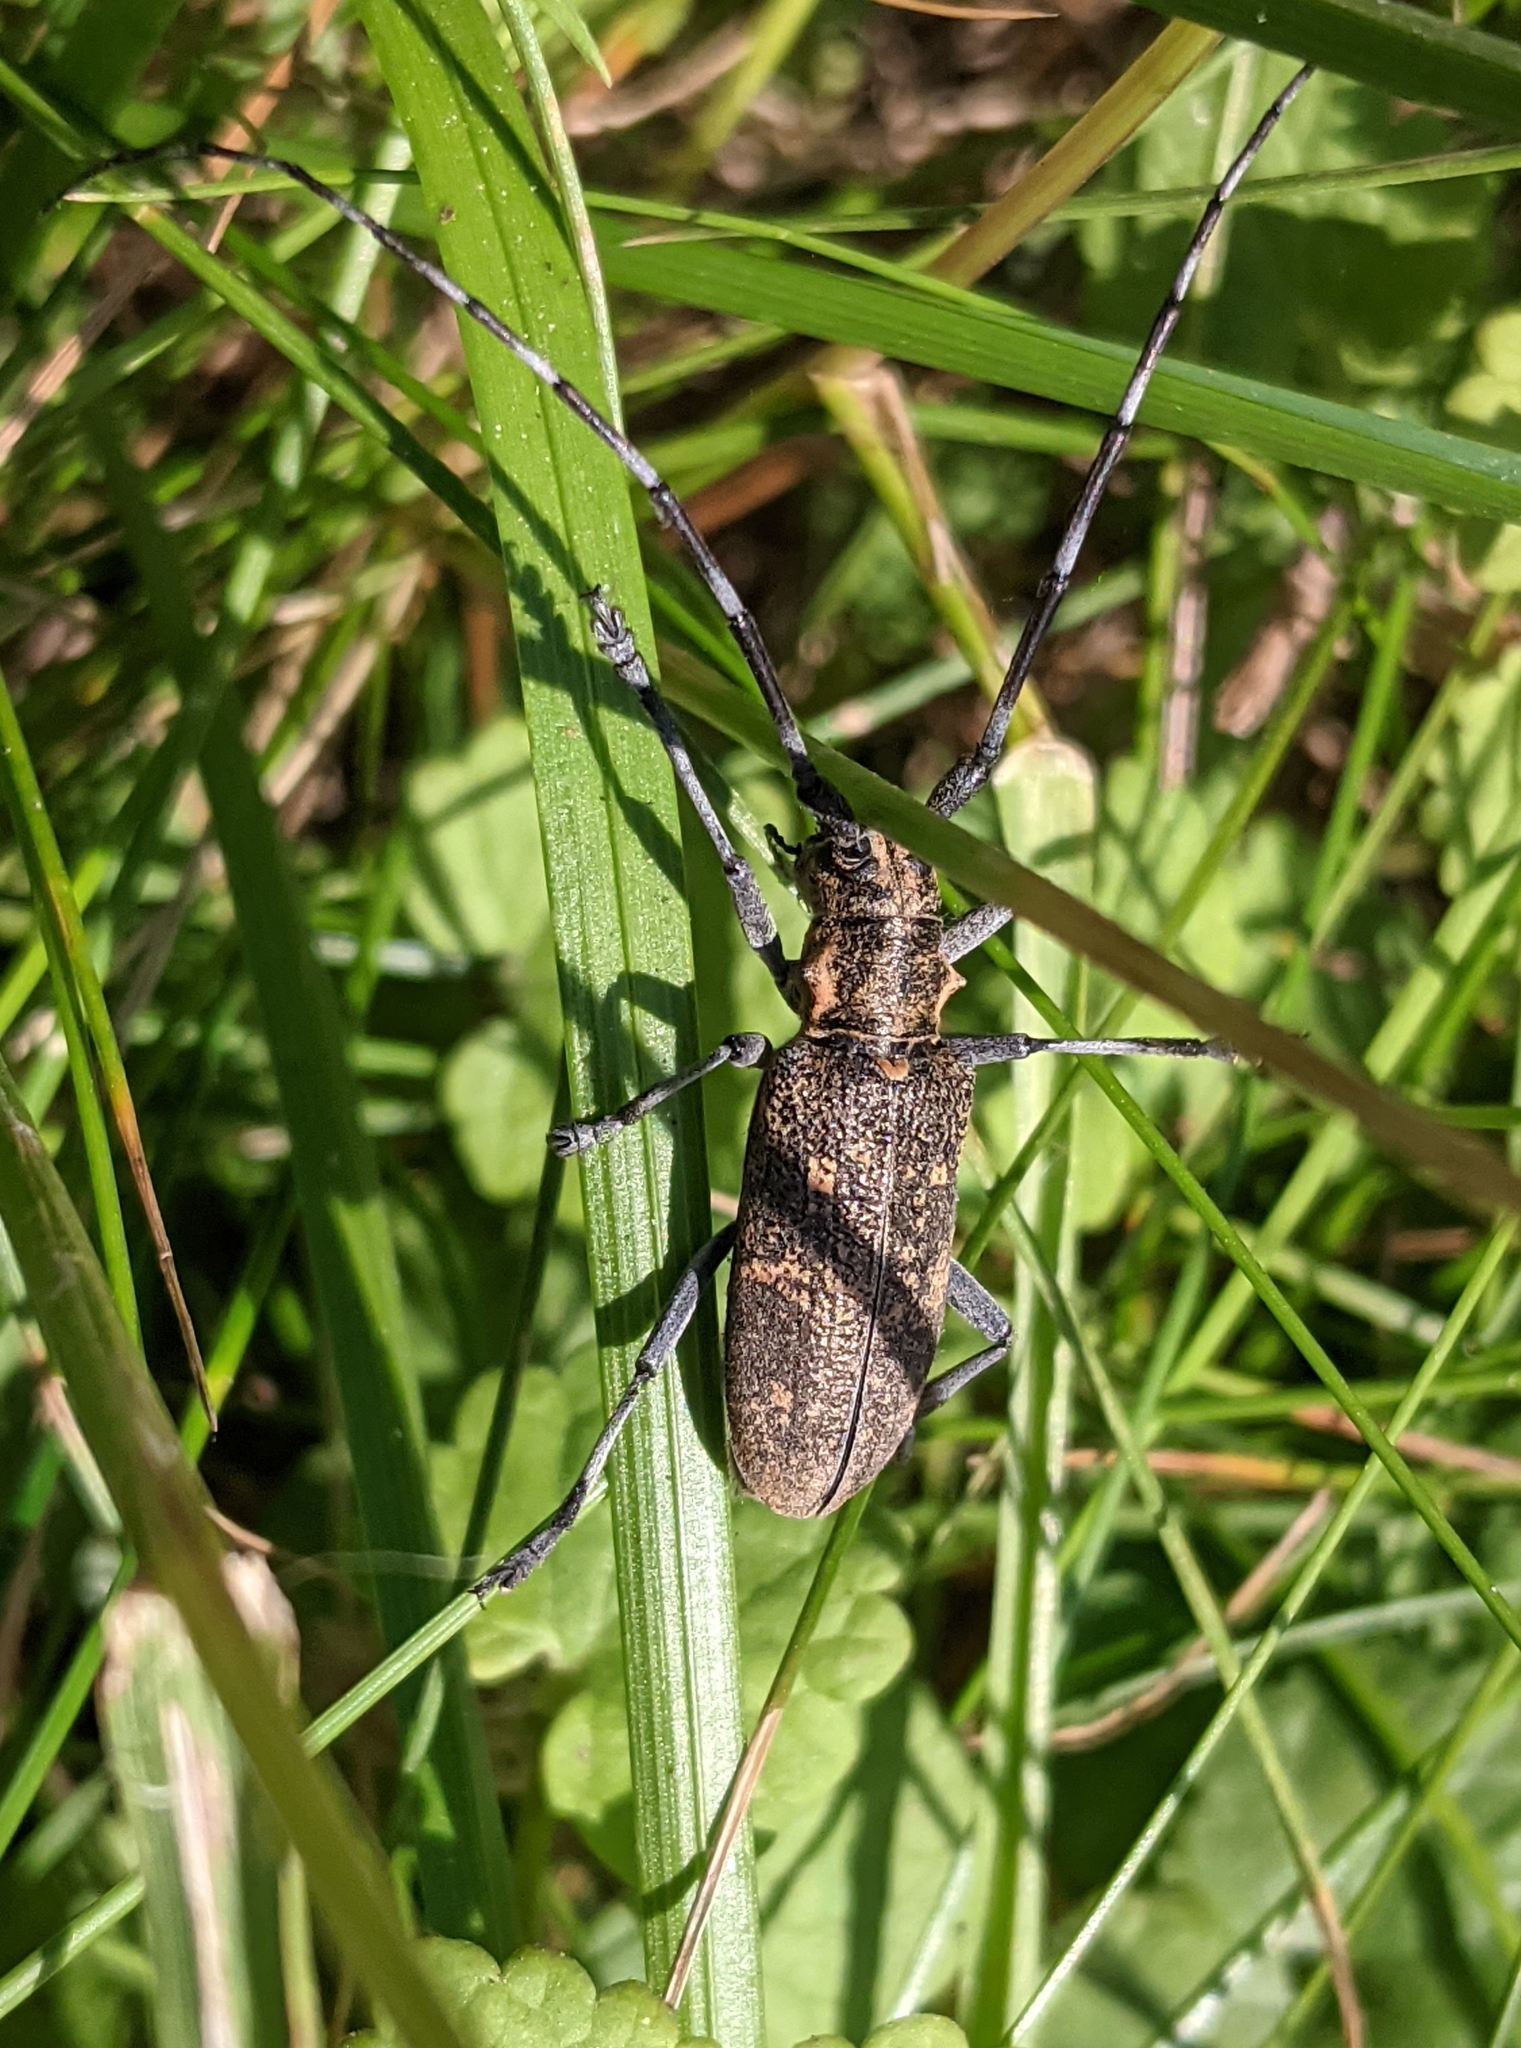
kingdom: Animalia
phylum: Arthropoda
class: Insecta
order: Coleoptera
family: Cerambycidae
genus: Monochamus
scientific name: Monochamus galloprovincialis
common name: Pine sawyer
